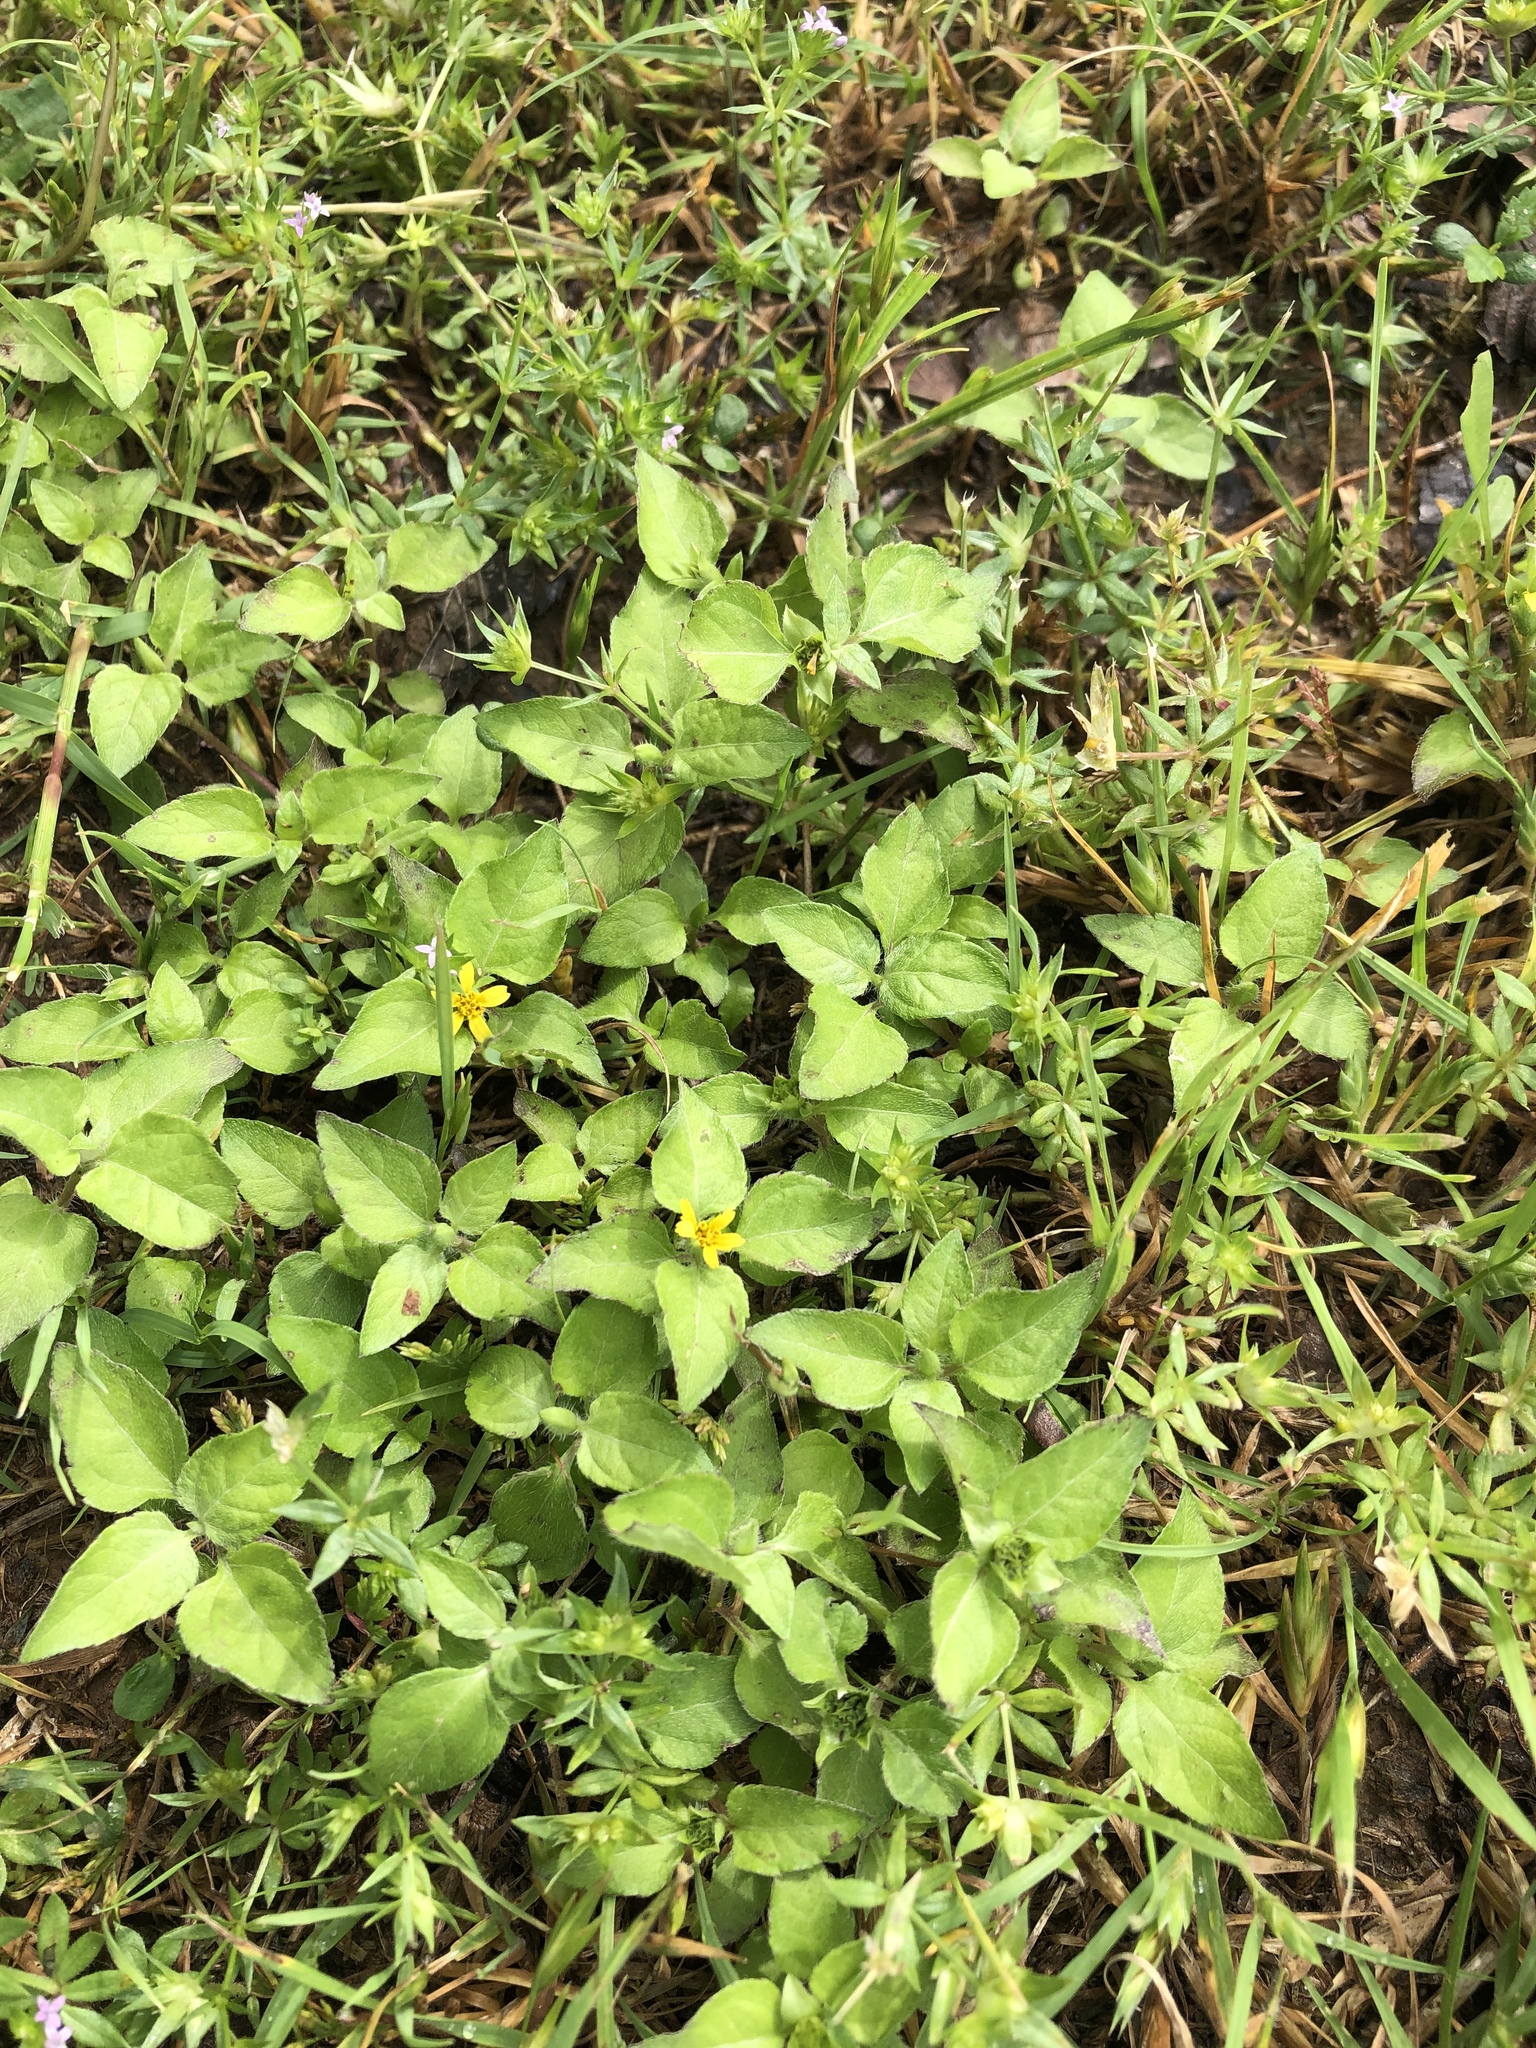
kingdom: Plantae
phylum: Tracheophyta
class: Magnoliopsida
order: Asterales
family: Asteraceae
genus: Calyptocarpus
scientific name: Calyptocarpus vialis
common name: Straggler daisy
